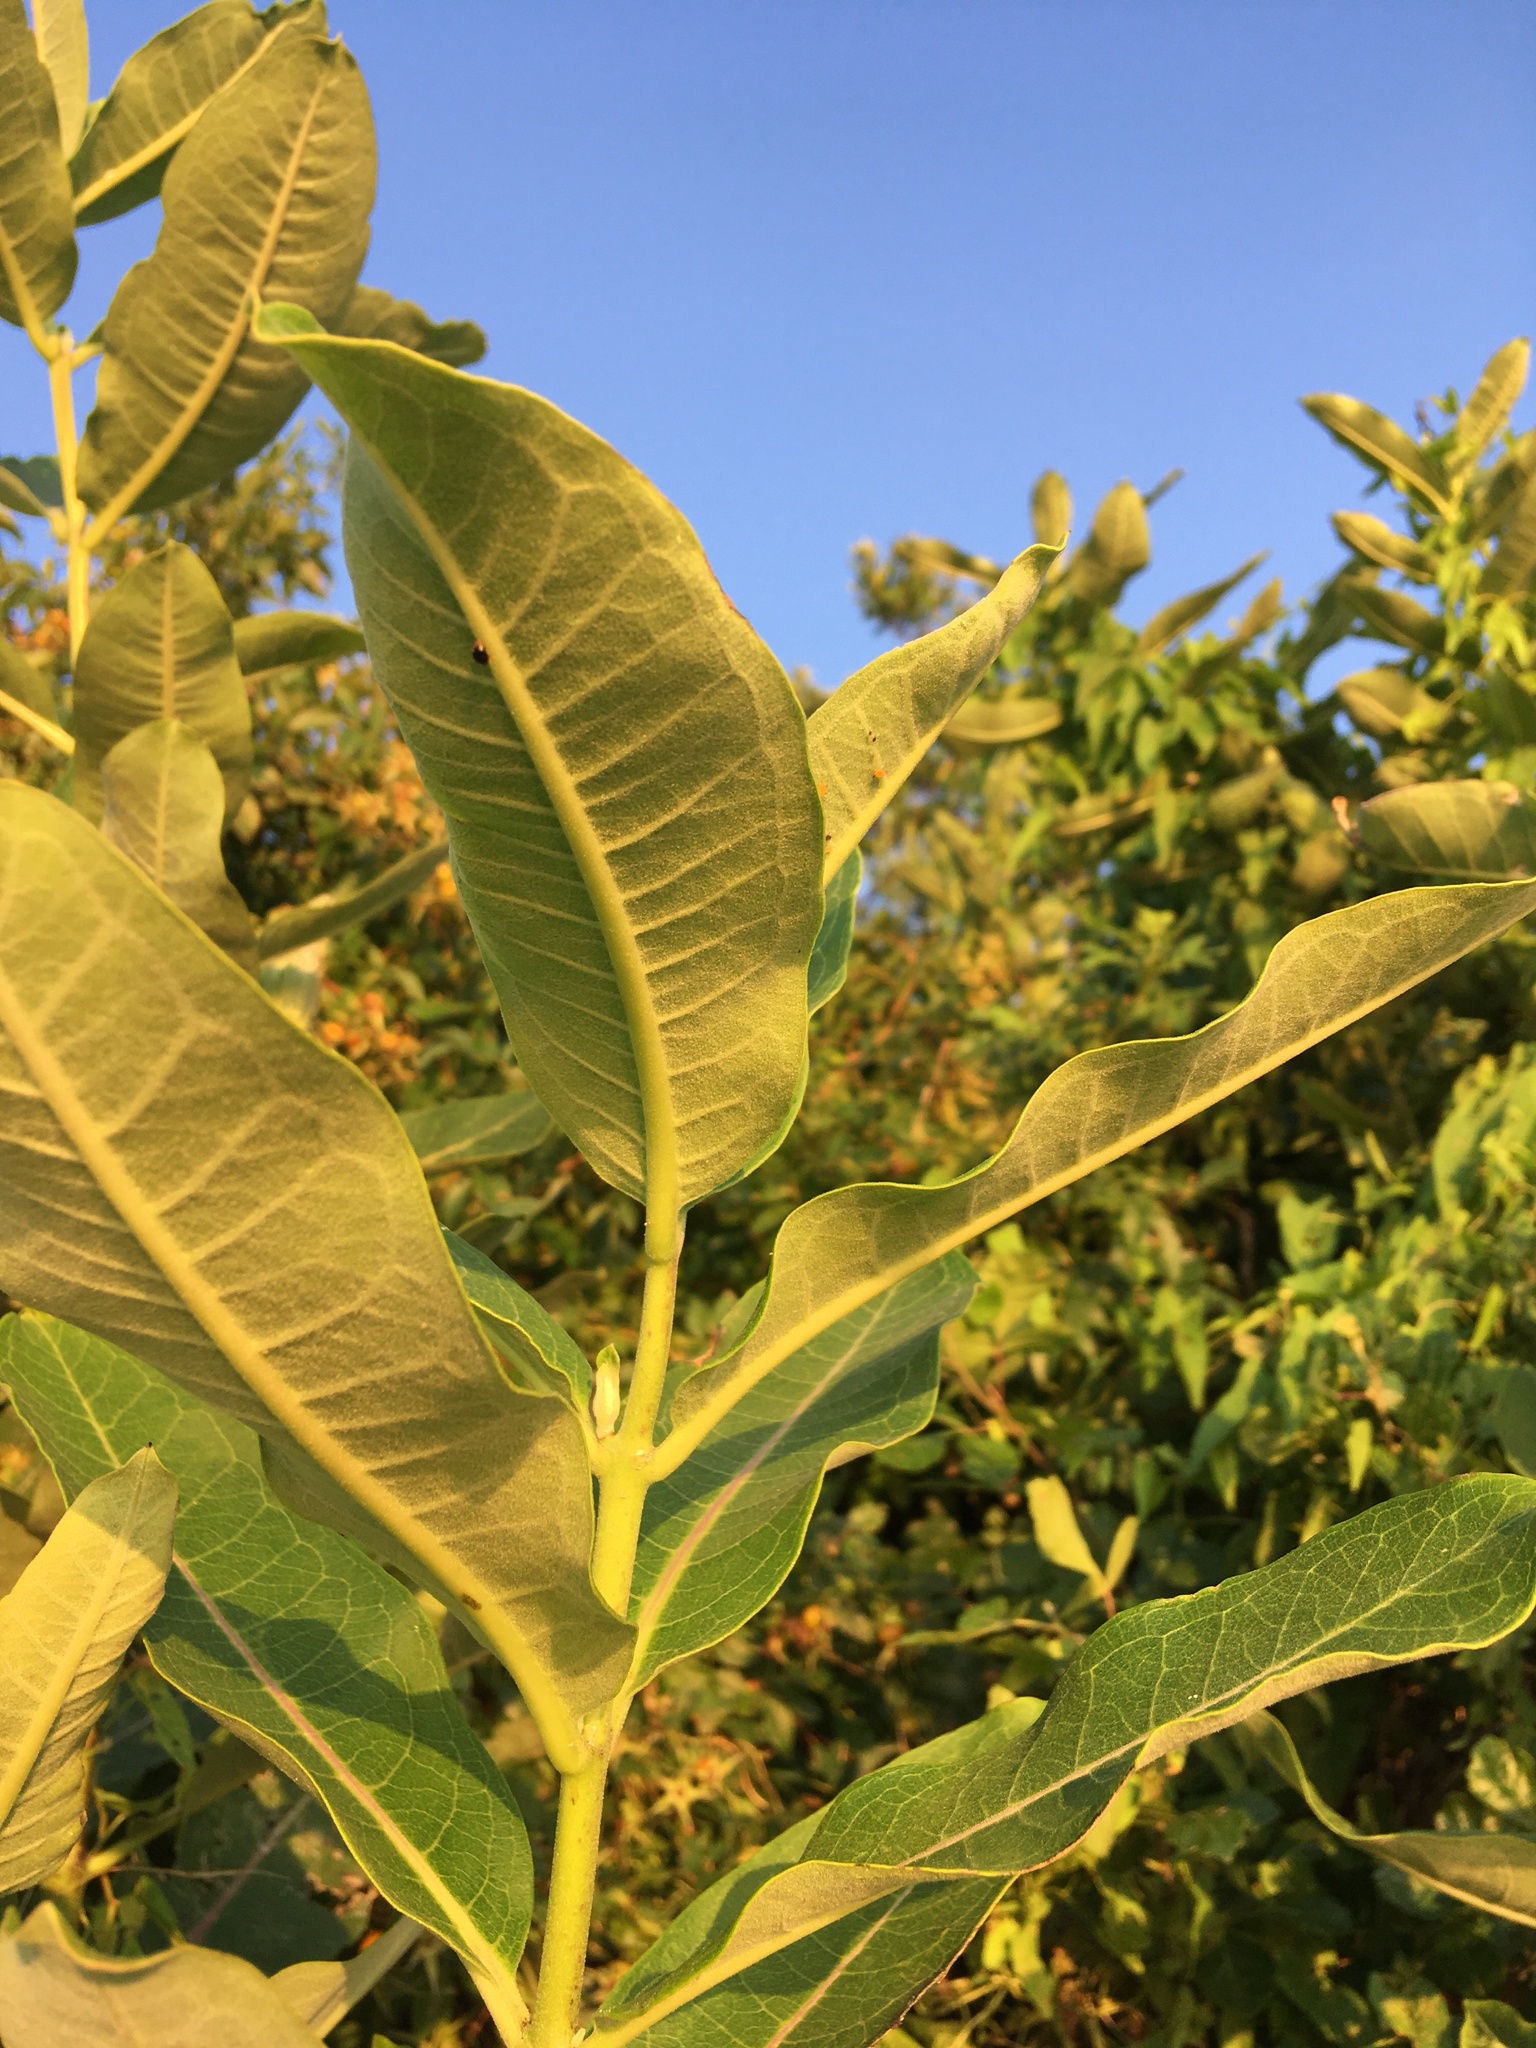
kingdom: Plantae
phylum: Tracheophyta
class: Magnoliopsida
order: Gentianales
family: Apocynaceae
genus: Asclepias
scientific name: Asclepias syriaca
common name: Common milkweed
